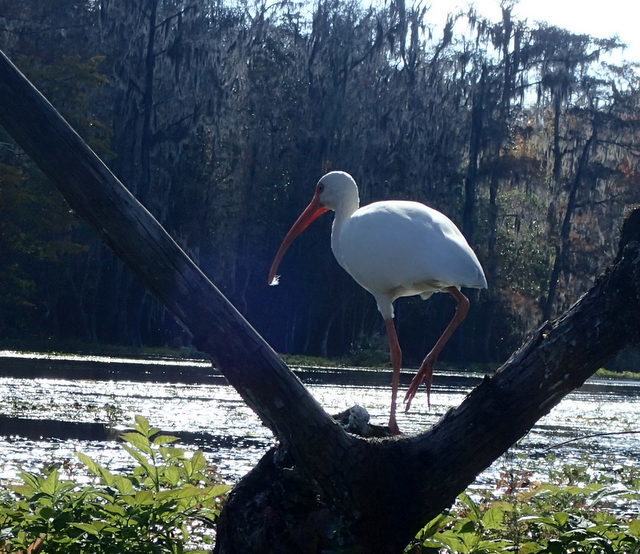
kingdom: Animalia
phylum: Chordata
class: Aves
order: Pelecaniformes
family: Threskiornithidae
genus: Eudocimus
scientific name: Eudocimus albus
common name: White ibis
